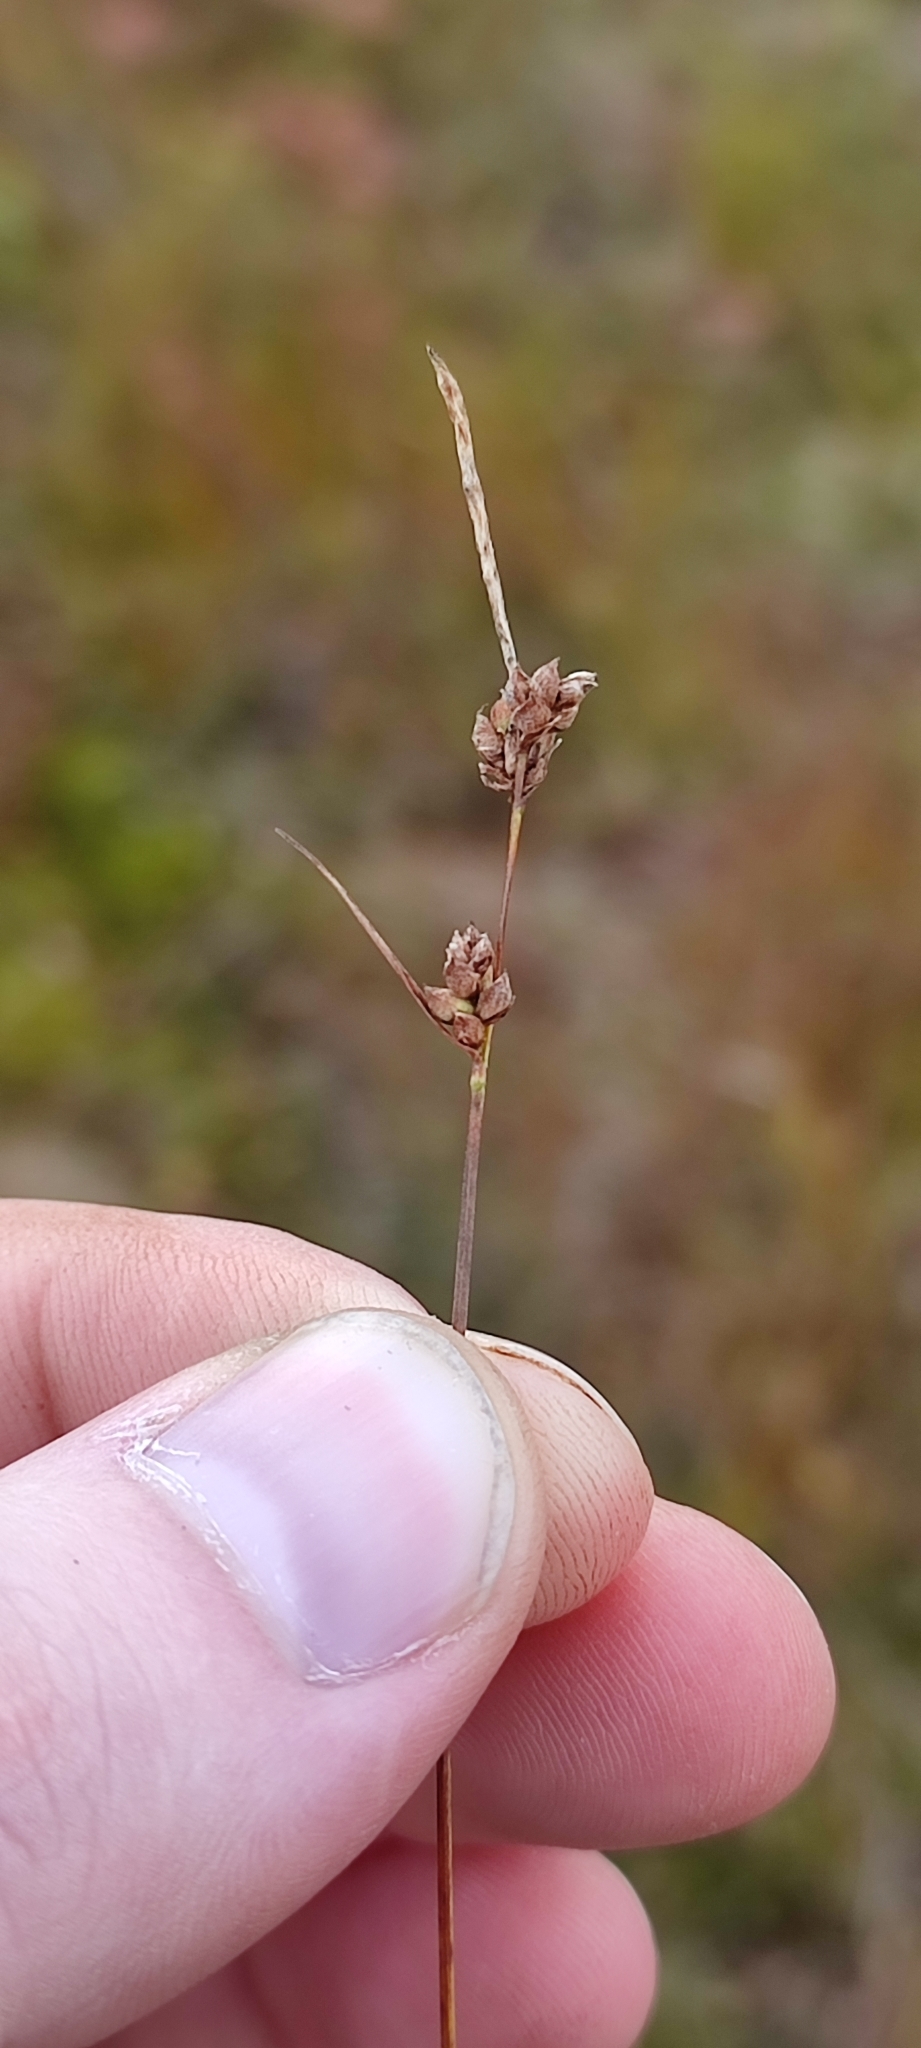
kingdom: Plantae
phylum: Tracheophyta
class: Liliopsida
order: Poales
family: Cyperaceae
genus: Carex
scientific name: Carex globularis
